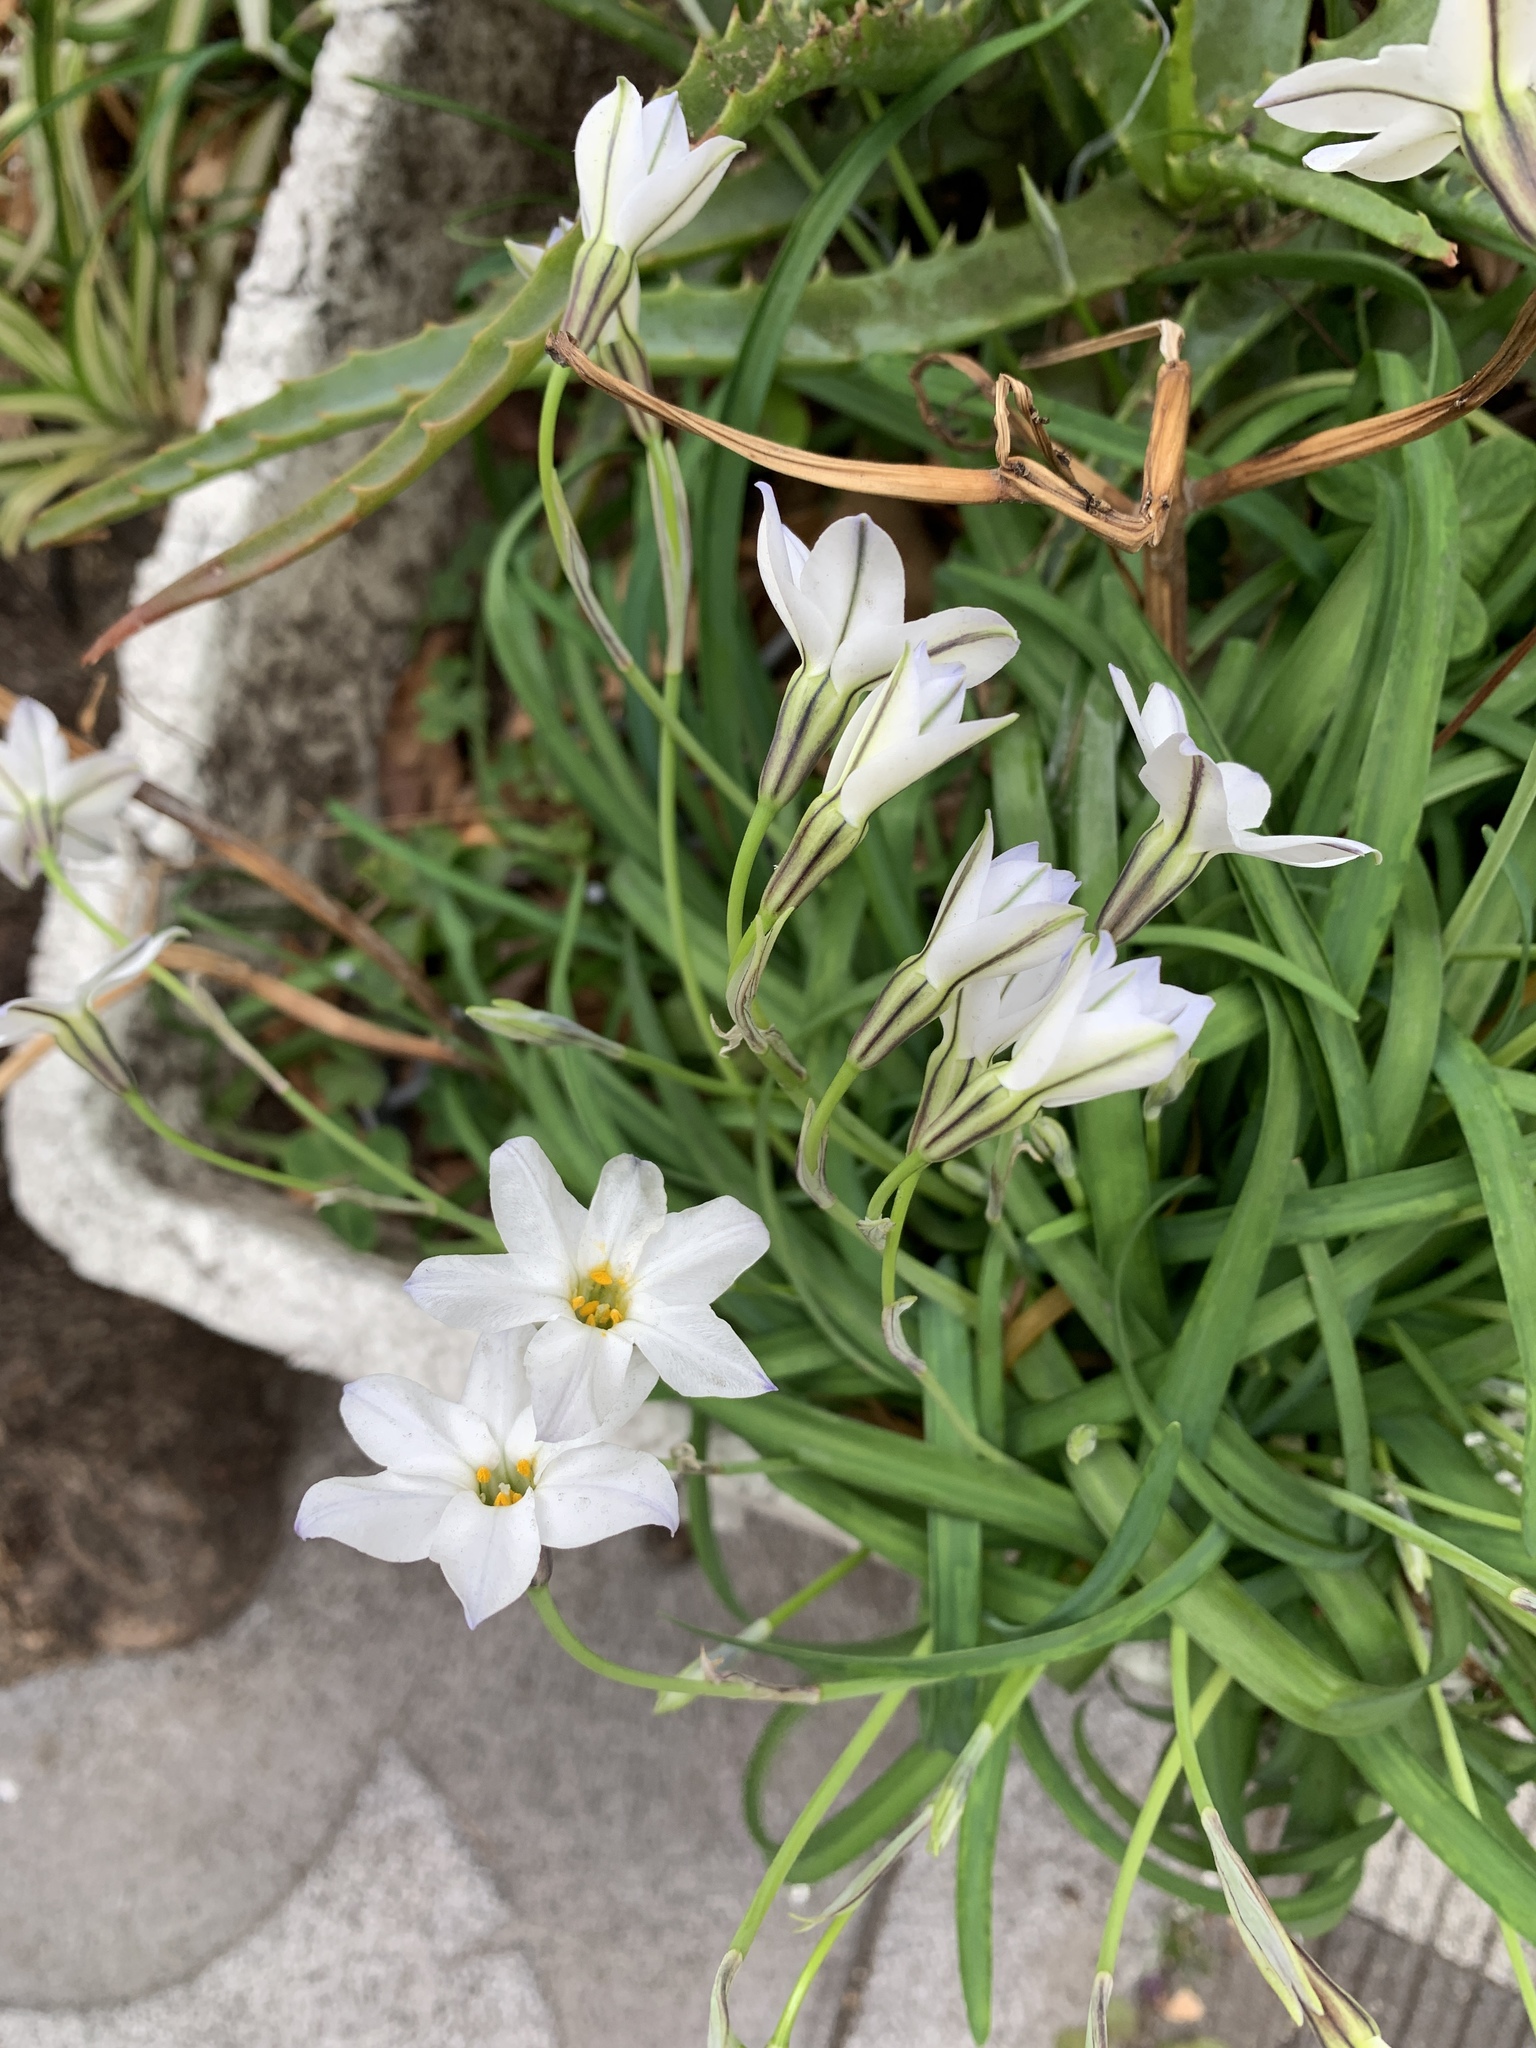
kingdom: Plantae
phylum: Tracheophyta
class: Liliopsida
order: Asparagales
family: Amaryllidaceae
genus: Ipheion
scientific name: Ipheion uniflorum
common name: Spring starflower
